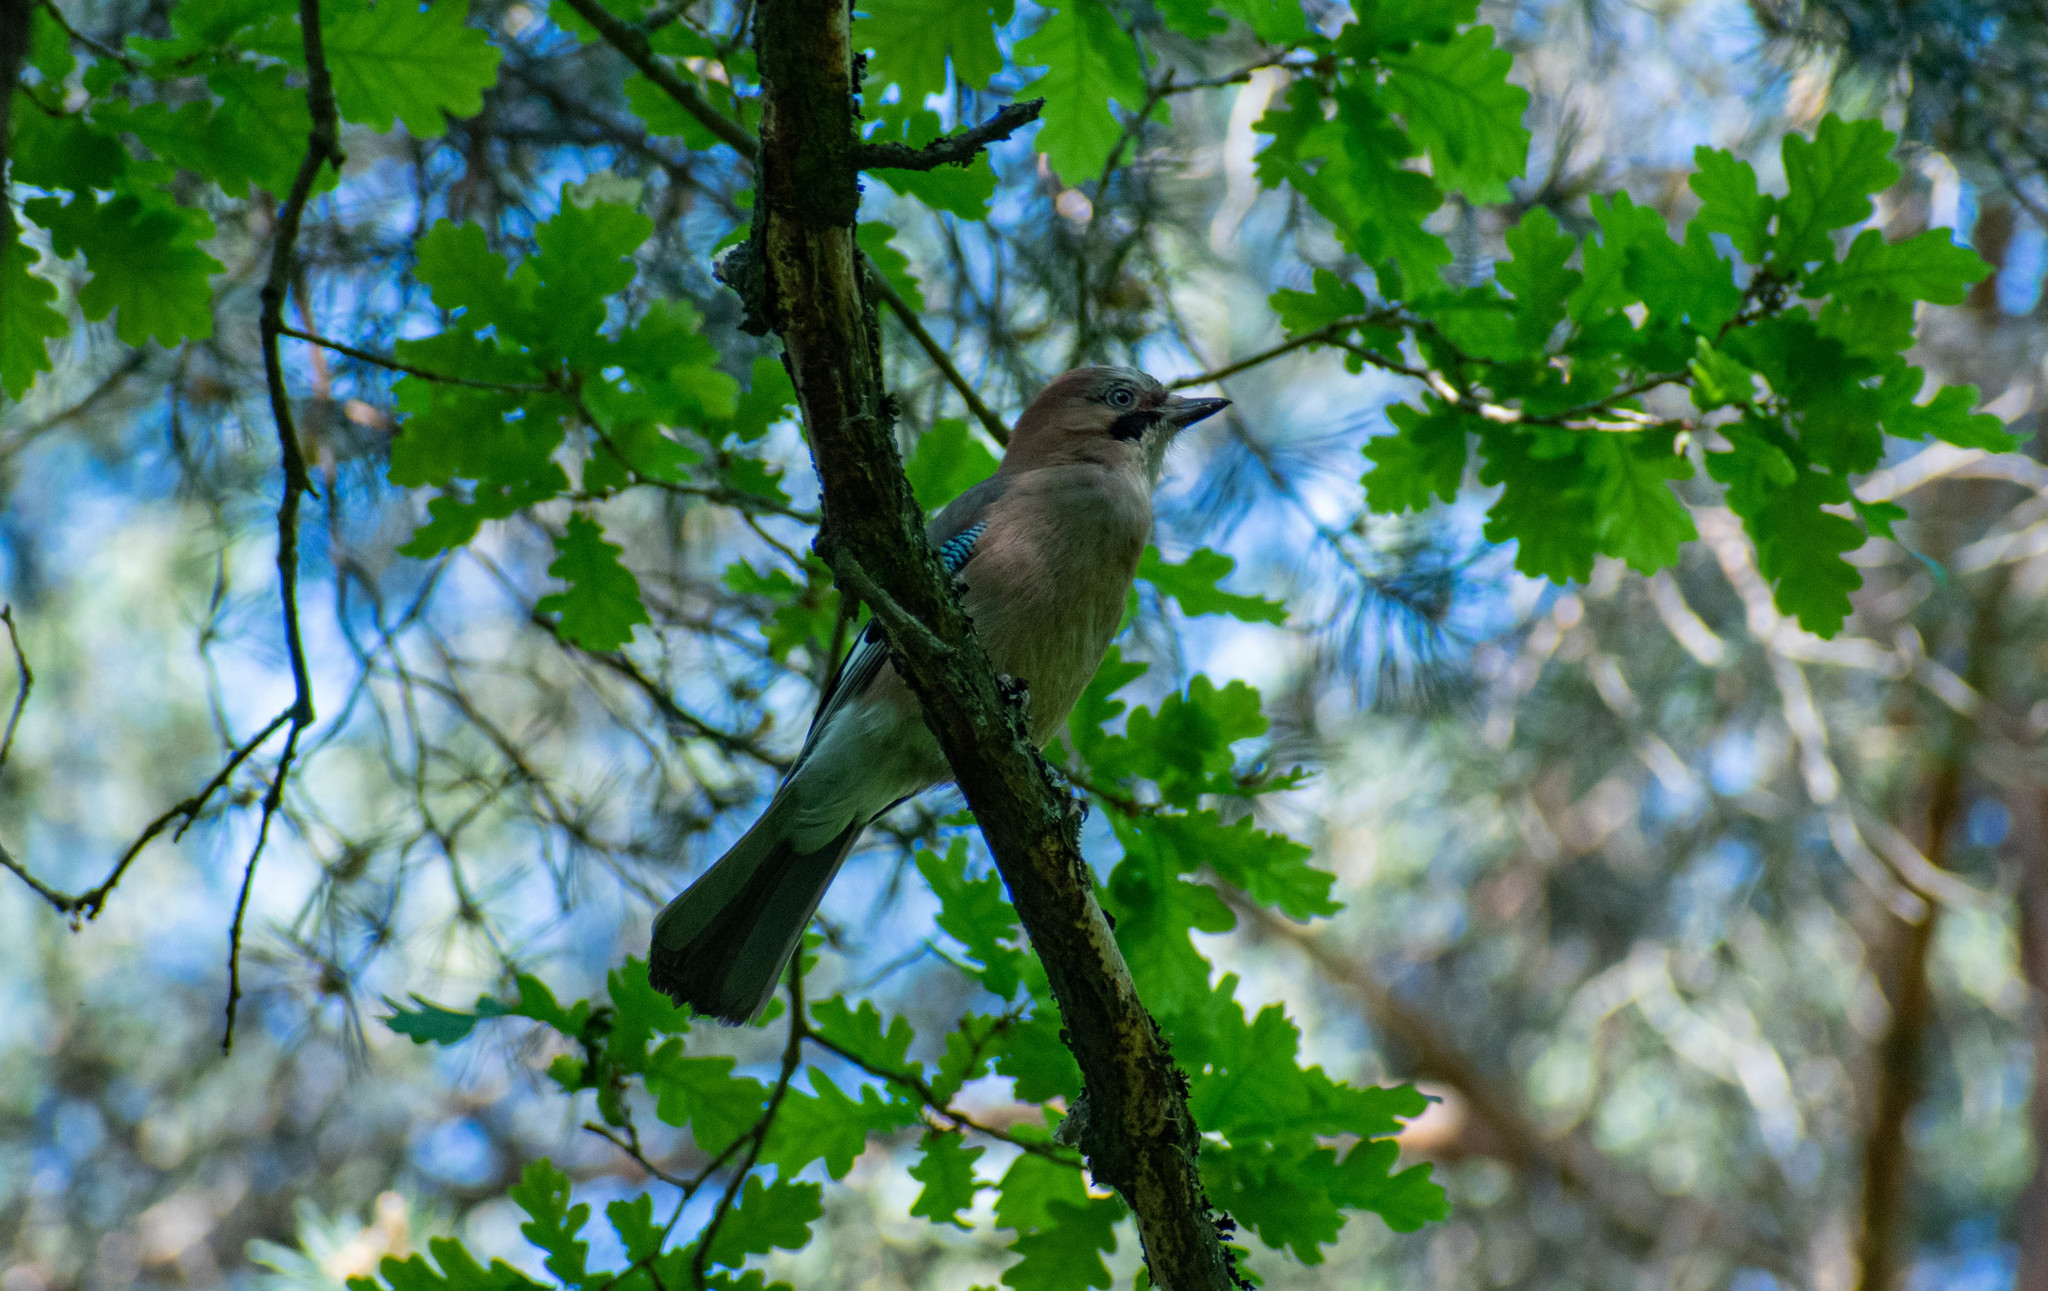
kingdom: Animalia
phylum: Chordata
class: Aves
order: Passeriformes
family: Corvidae
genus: Garrulus
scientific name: Garrulus glandarius
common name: Eurasian jay
